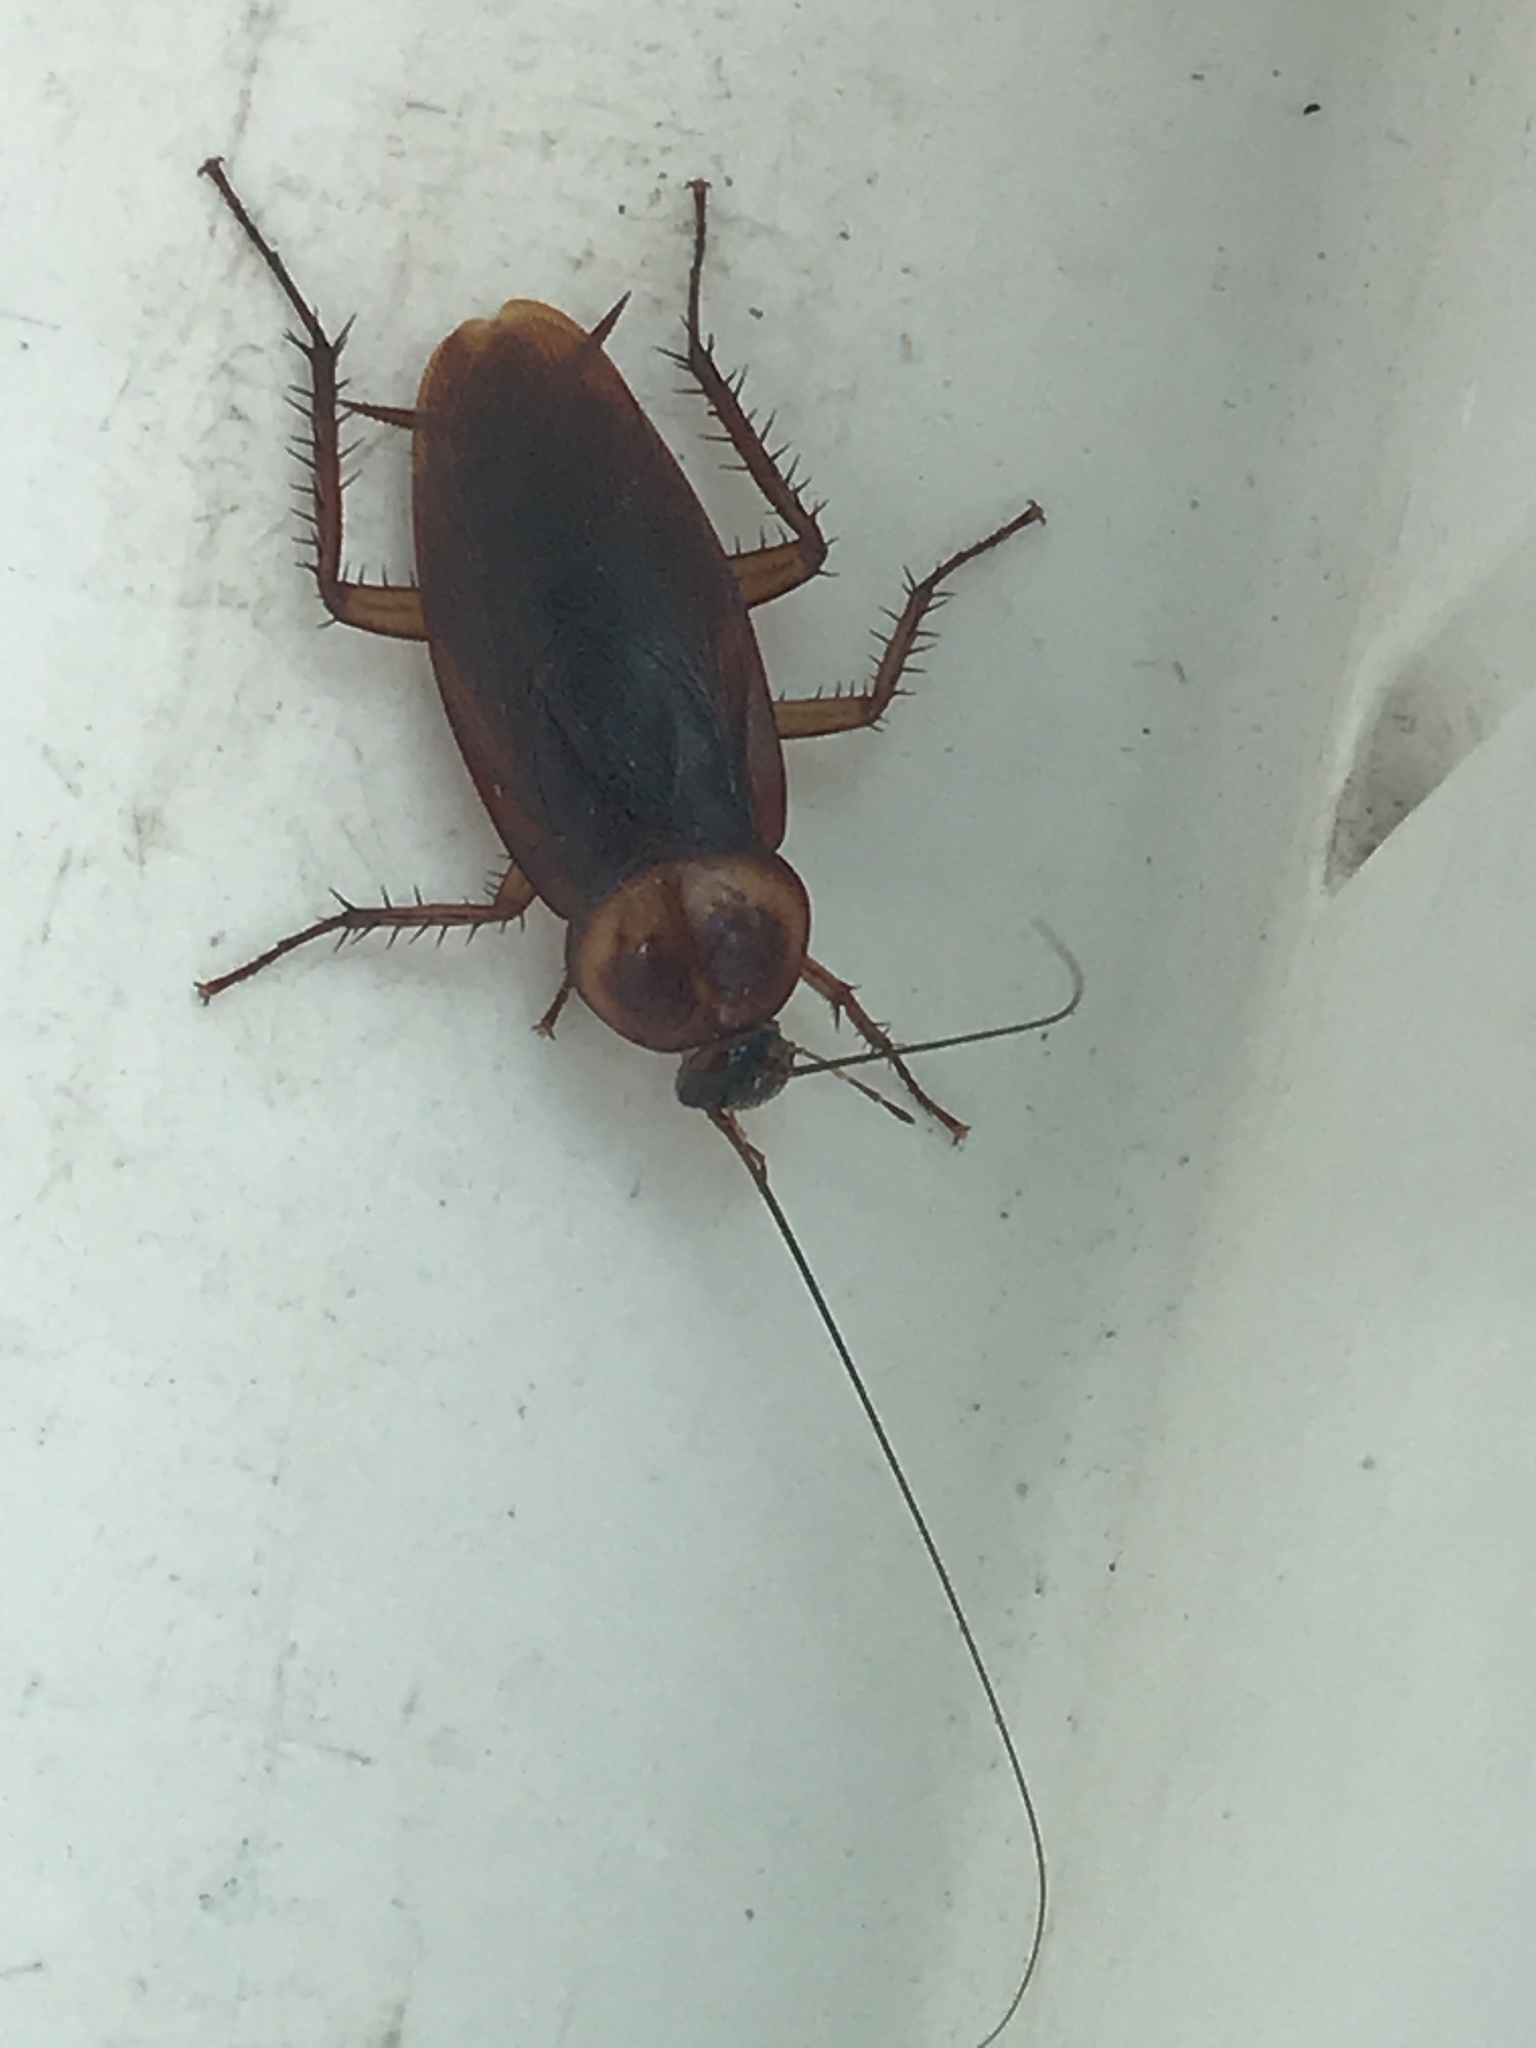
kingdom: Animalia
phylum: Arthropoda
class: Insecta
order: Blattodea
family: Blattidae
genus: Periplaneta
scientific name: Periplaneta americana
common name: American cockroach
